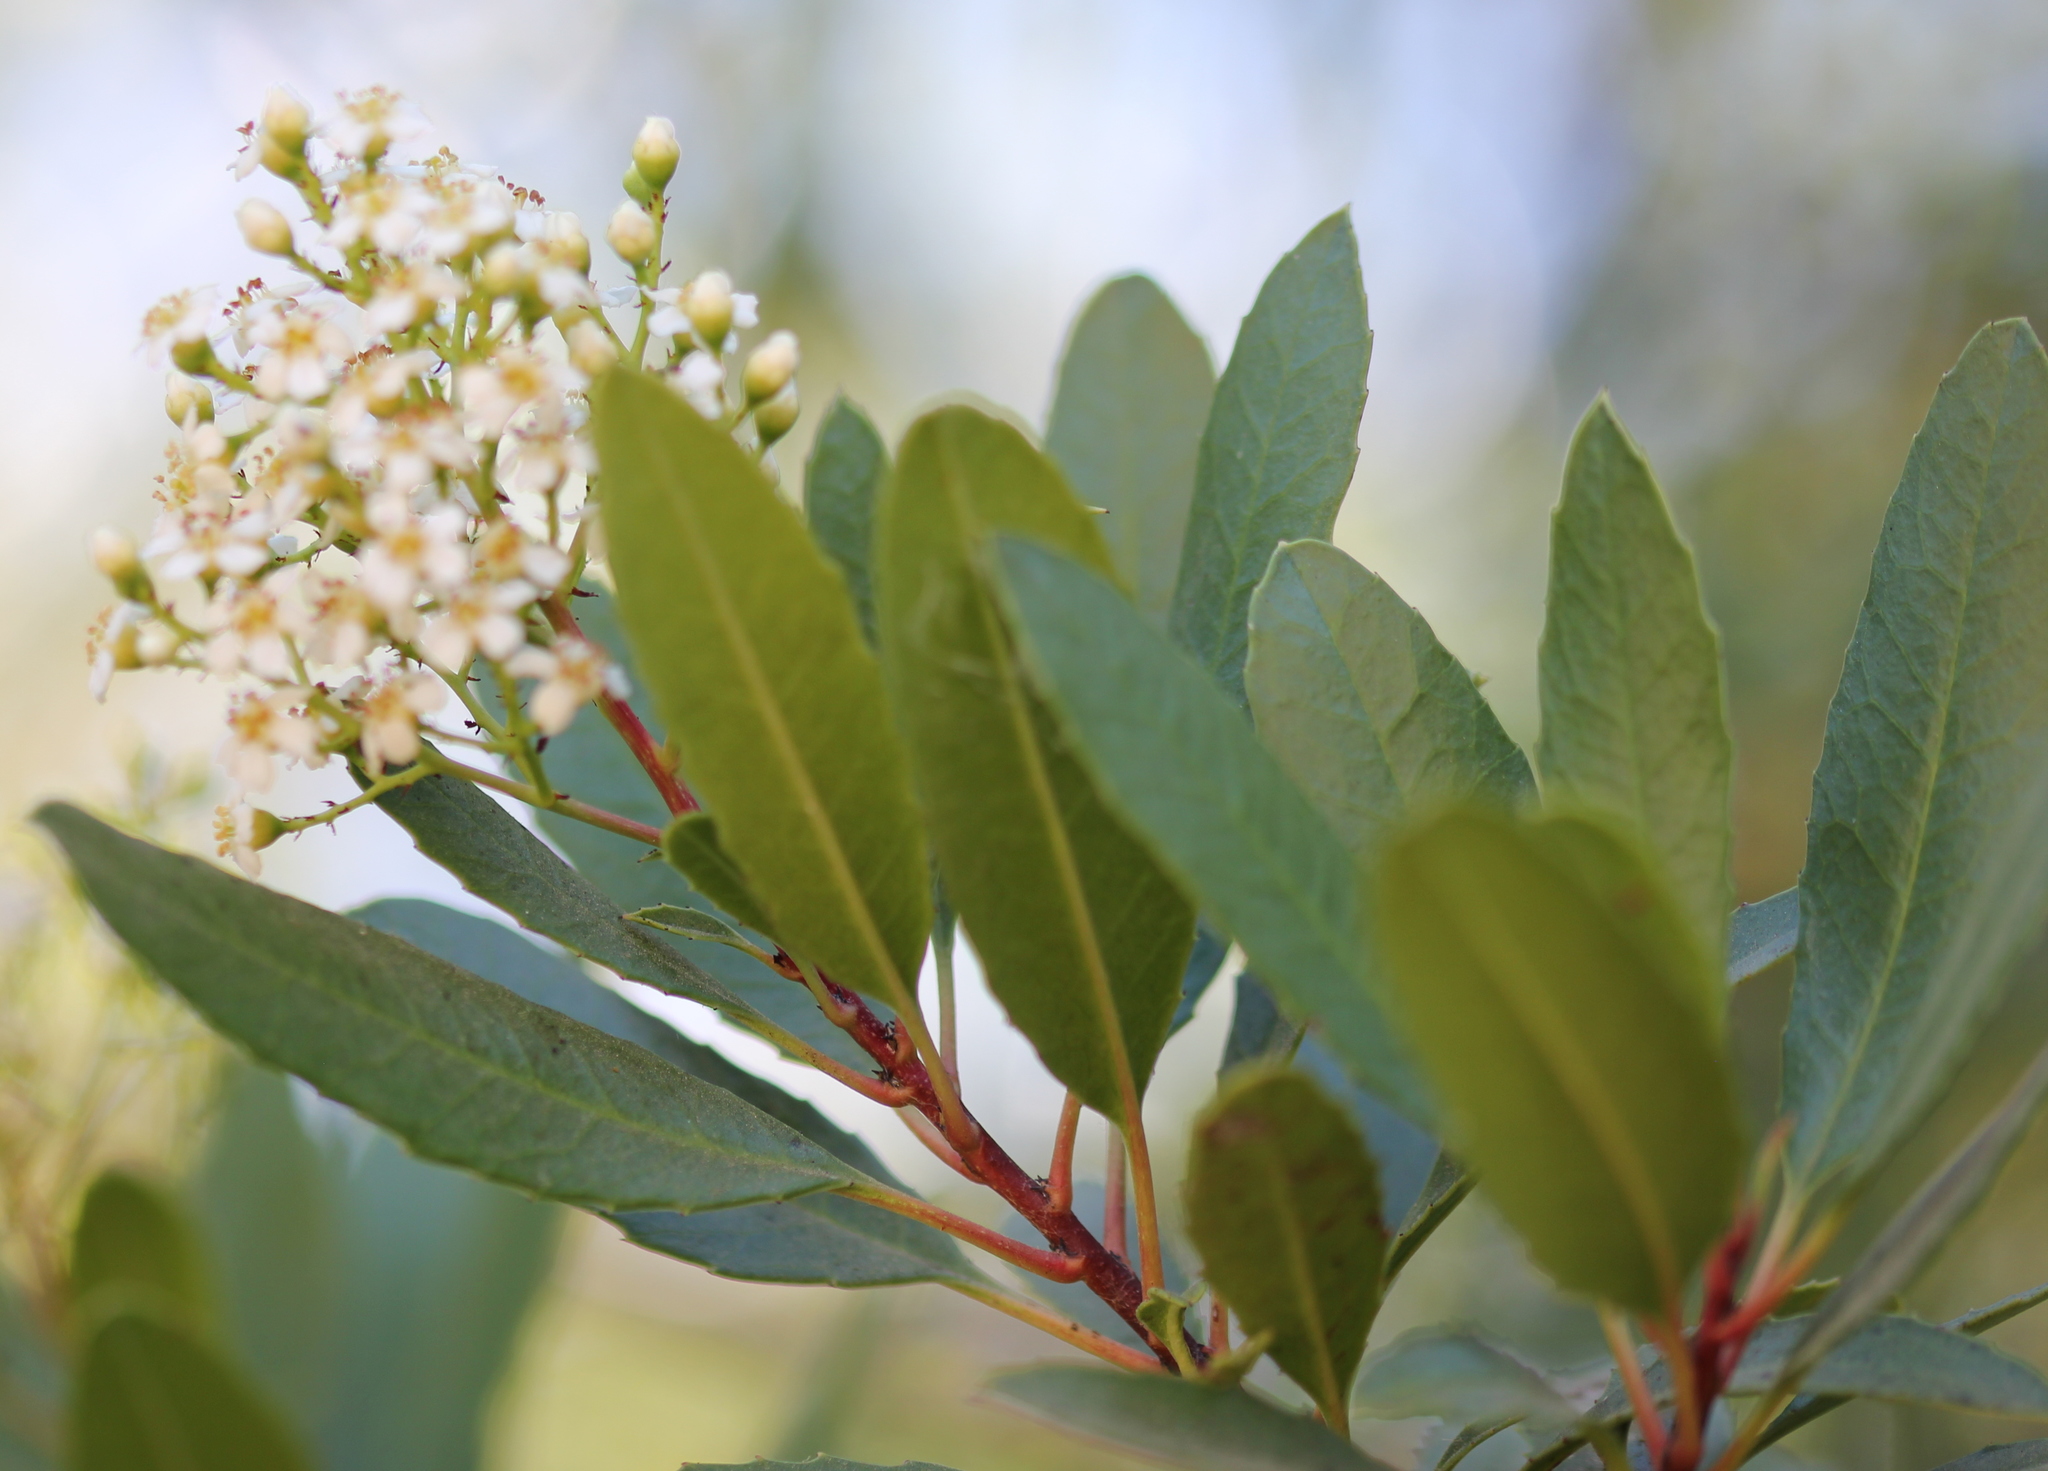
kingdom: Plantae
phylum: Tracheophyta
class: Magnoliopsida
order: Rosales
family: Rosaceae
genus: Heteromeles
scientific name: Heteromeles arbutifolia
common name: California-holly
